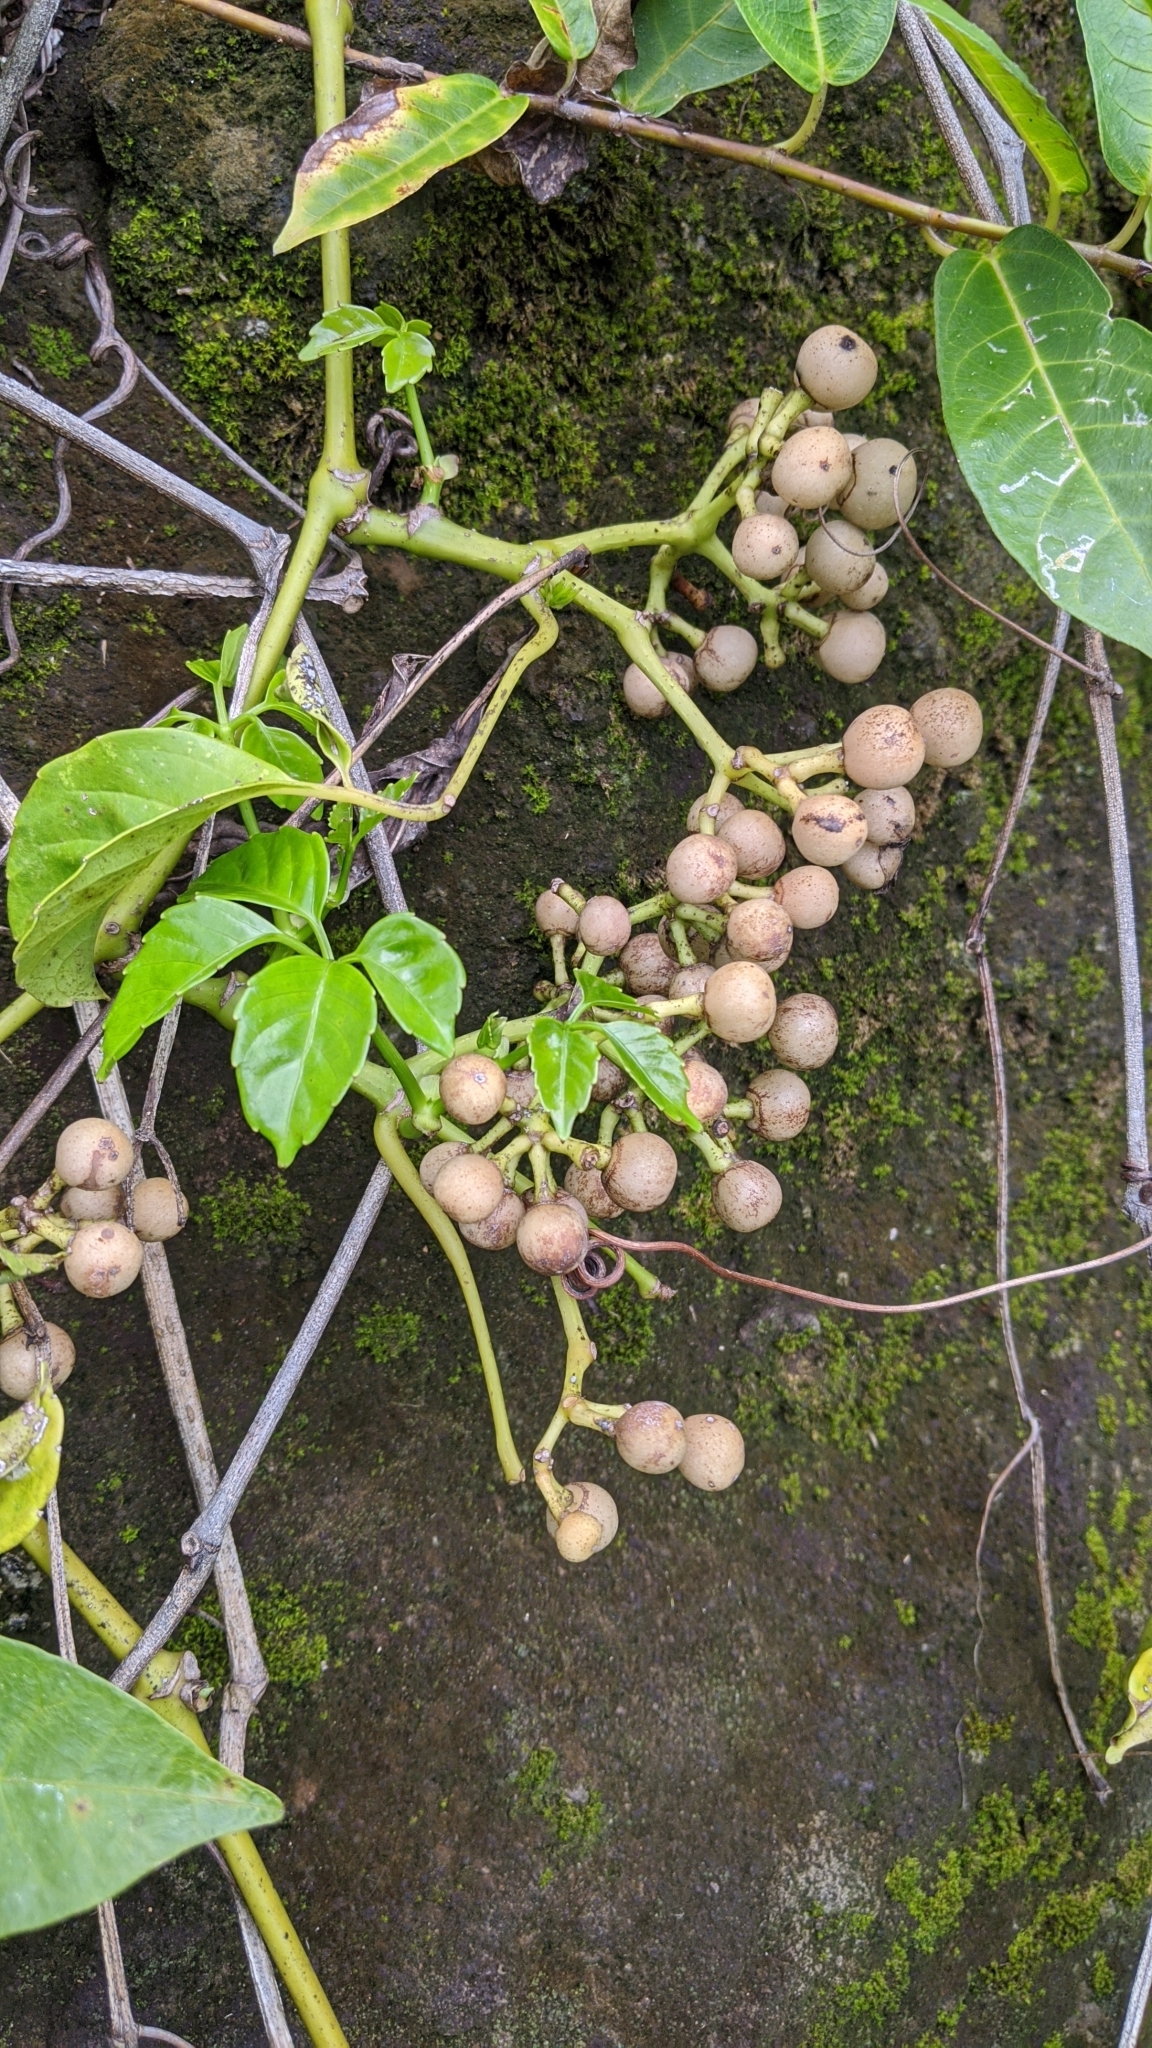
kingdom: Plantae
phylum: Tracheophyta
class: Magnoliopsida
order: Vitales
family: Vitaceae
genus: Tetrastigma
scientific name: Tetrastigma lanyuense
